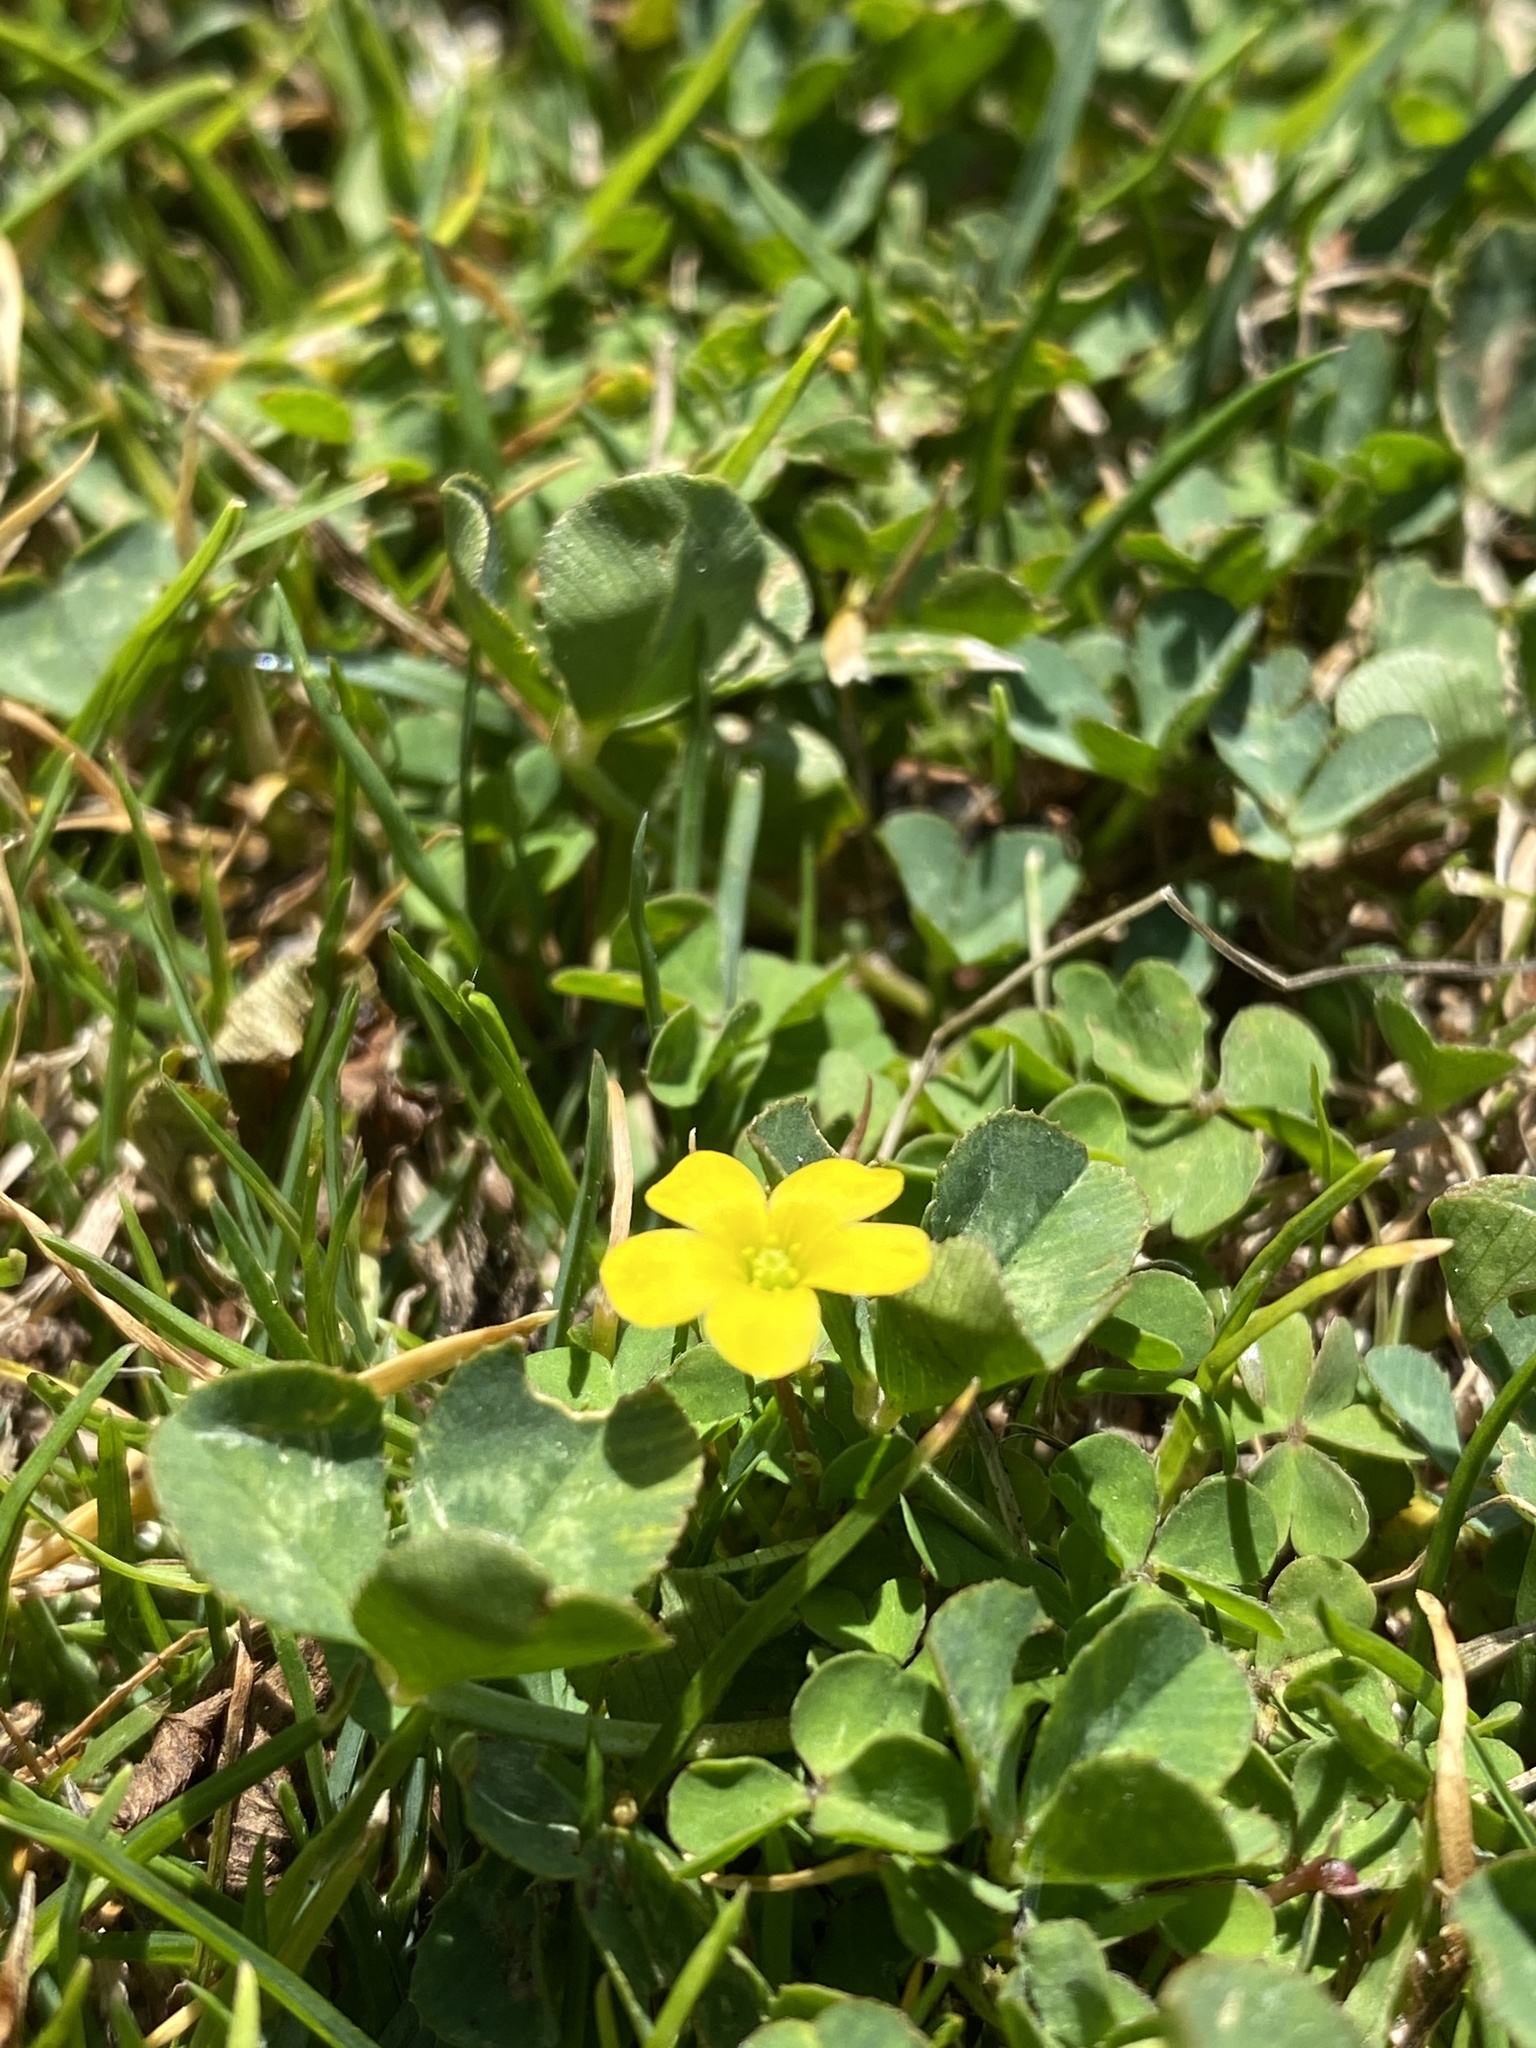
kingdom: Plantae
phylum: Tracheophyta
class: Magnoliopsida
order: Oxalidales
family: Oxalidaceae
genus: Oxalis
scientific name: Oxalis corniculata
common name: Procumbent yellow-sorrel
